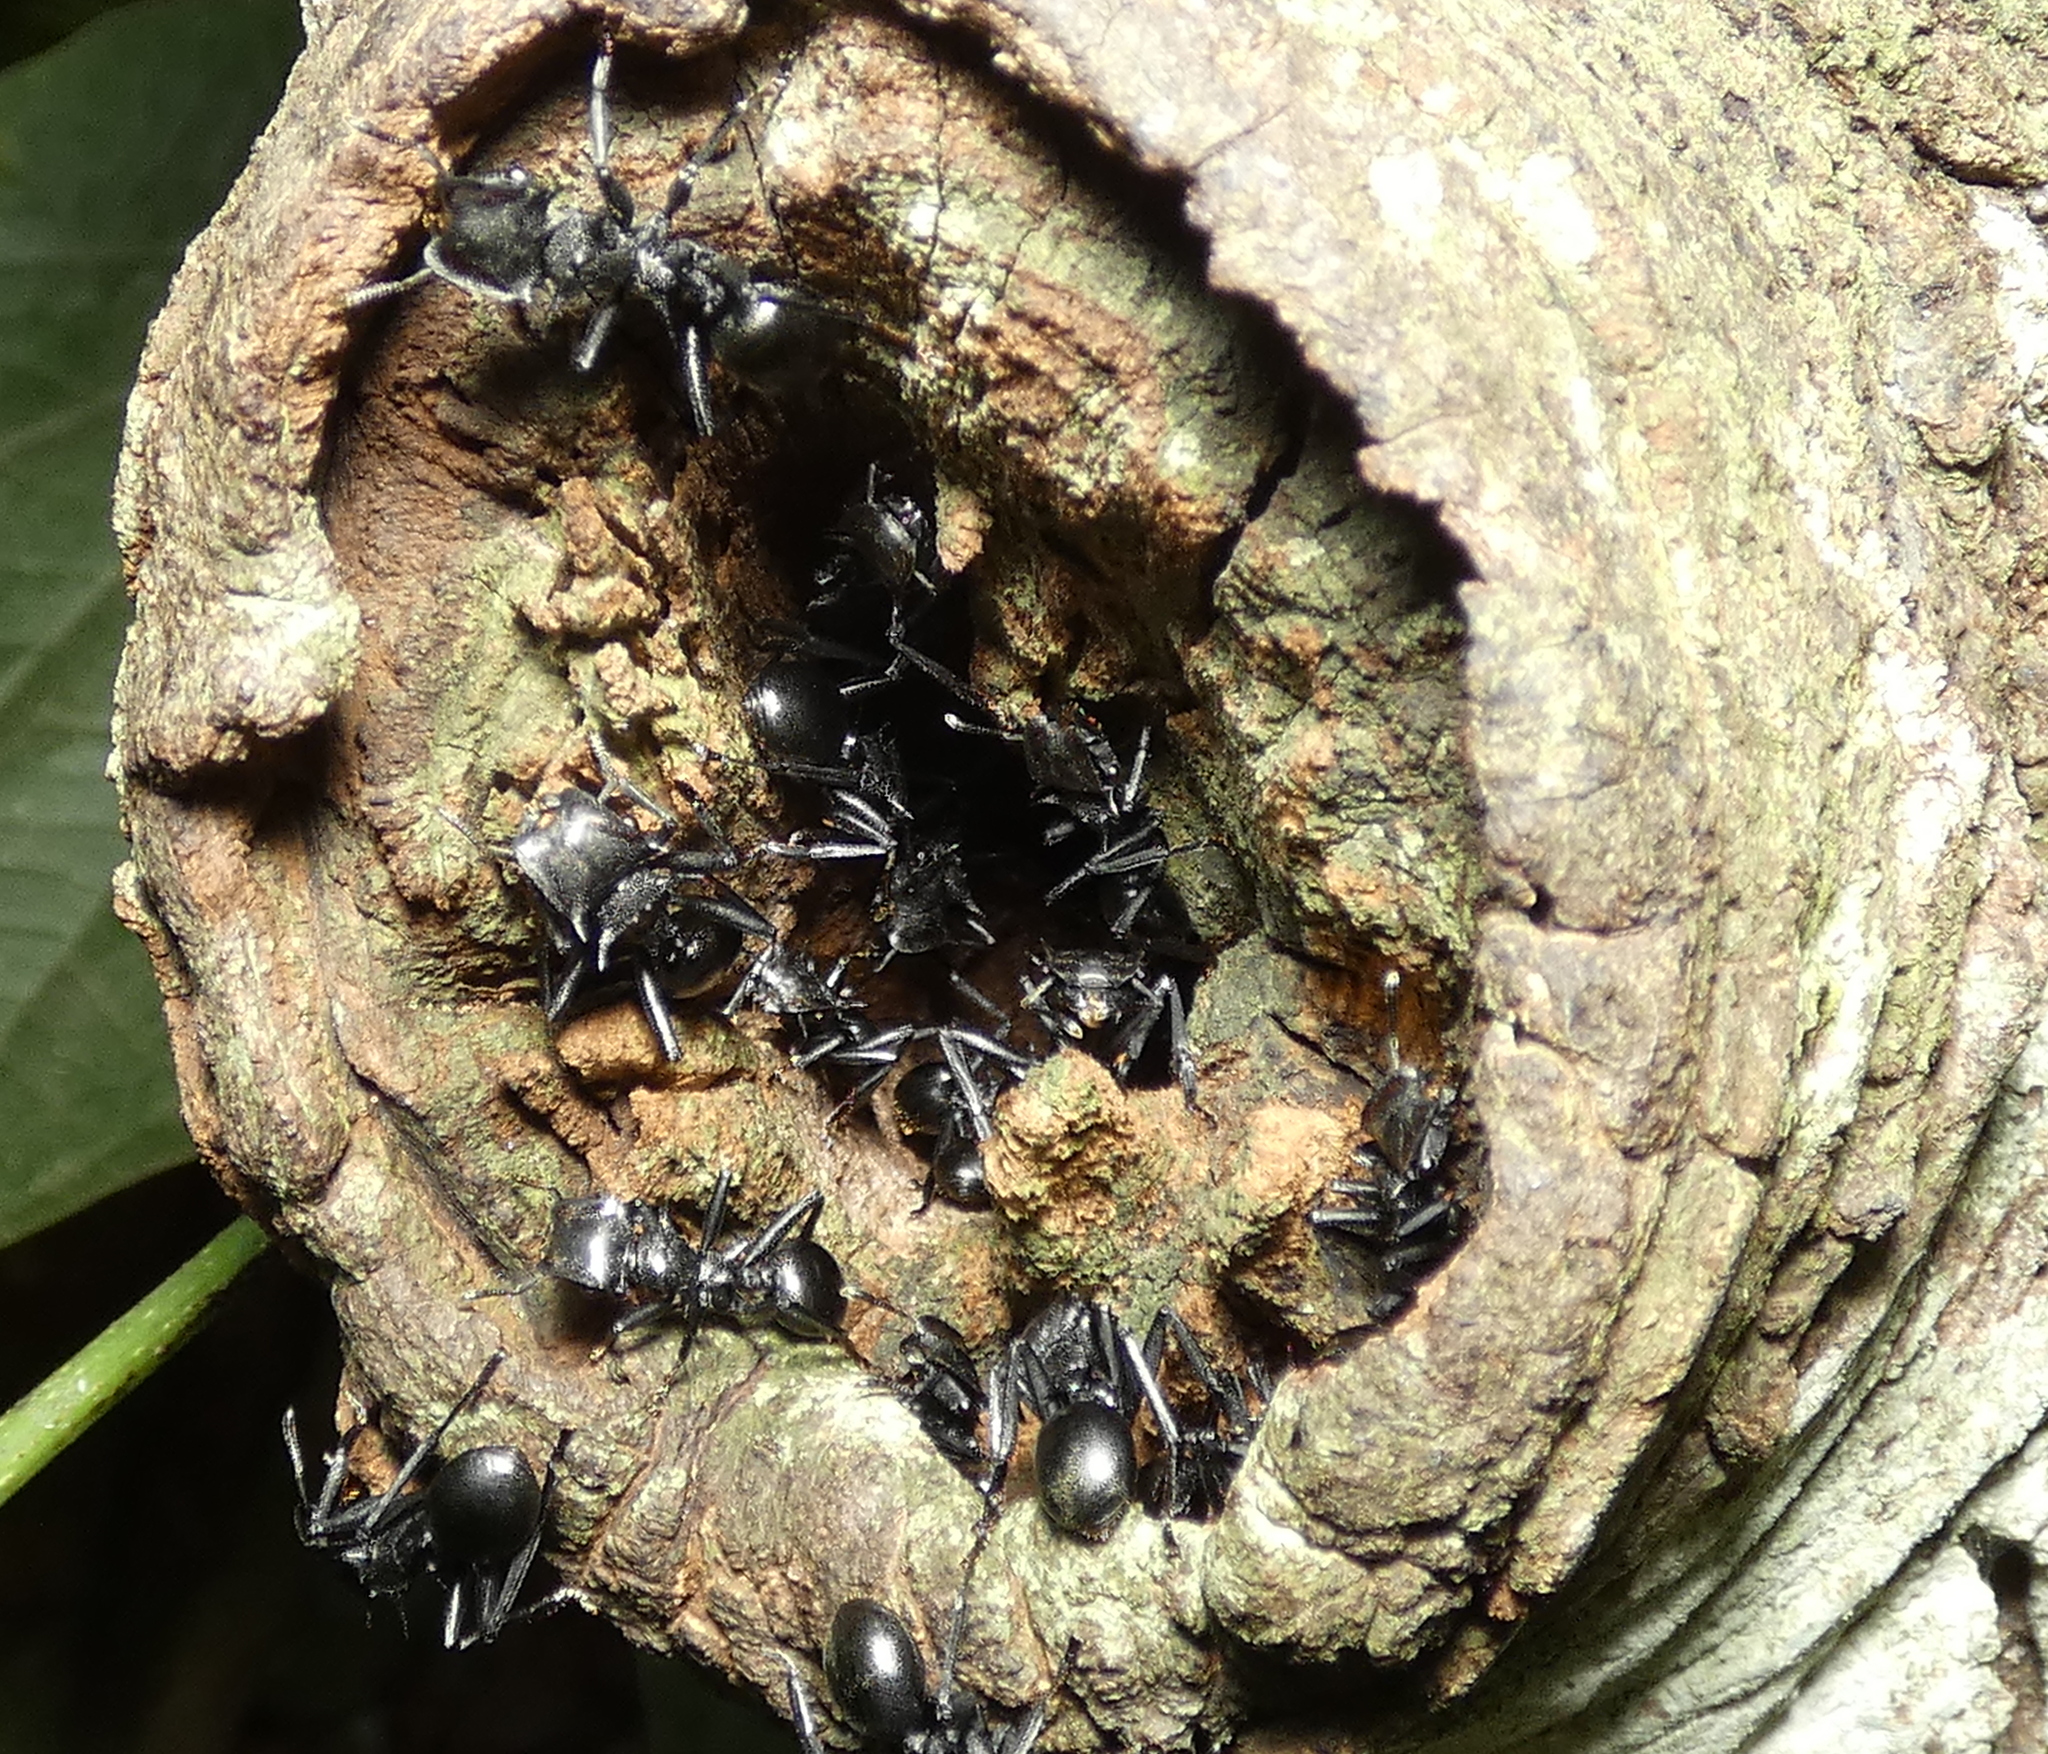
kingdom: Animalia
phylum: Arthropoda
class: Insecta
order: Hymenoptera
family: Formicidae
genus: Cephalotes
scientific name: Cephalotes atratus
